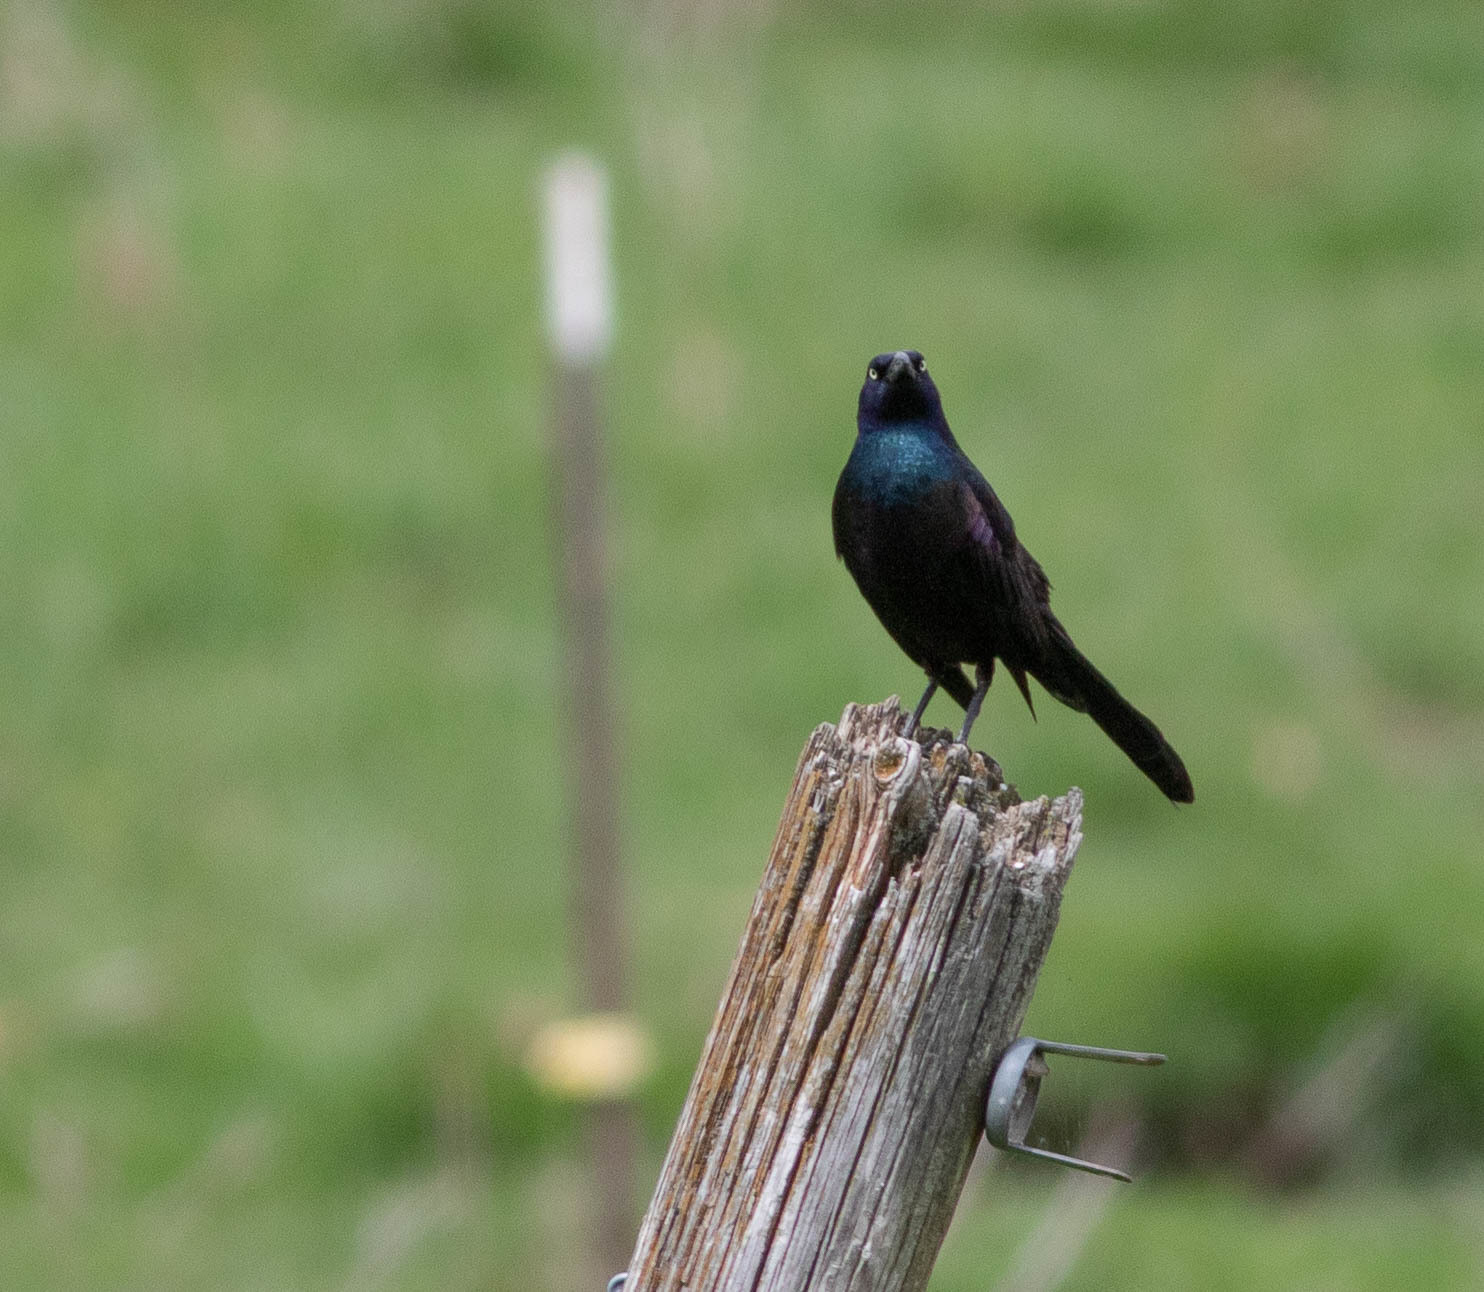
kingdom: Animalia
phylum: Chordata
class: Aves
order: Passeriformes
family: Icteridae
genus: Quiscalus
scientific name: Quiscalus quiscula
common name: Common grackle
